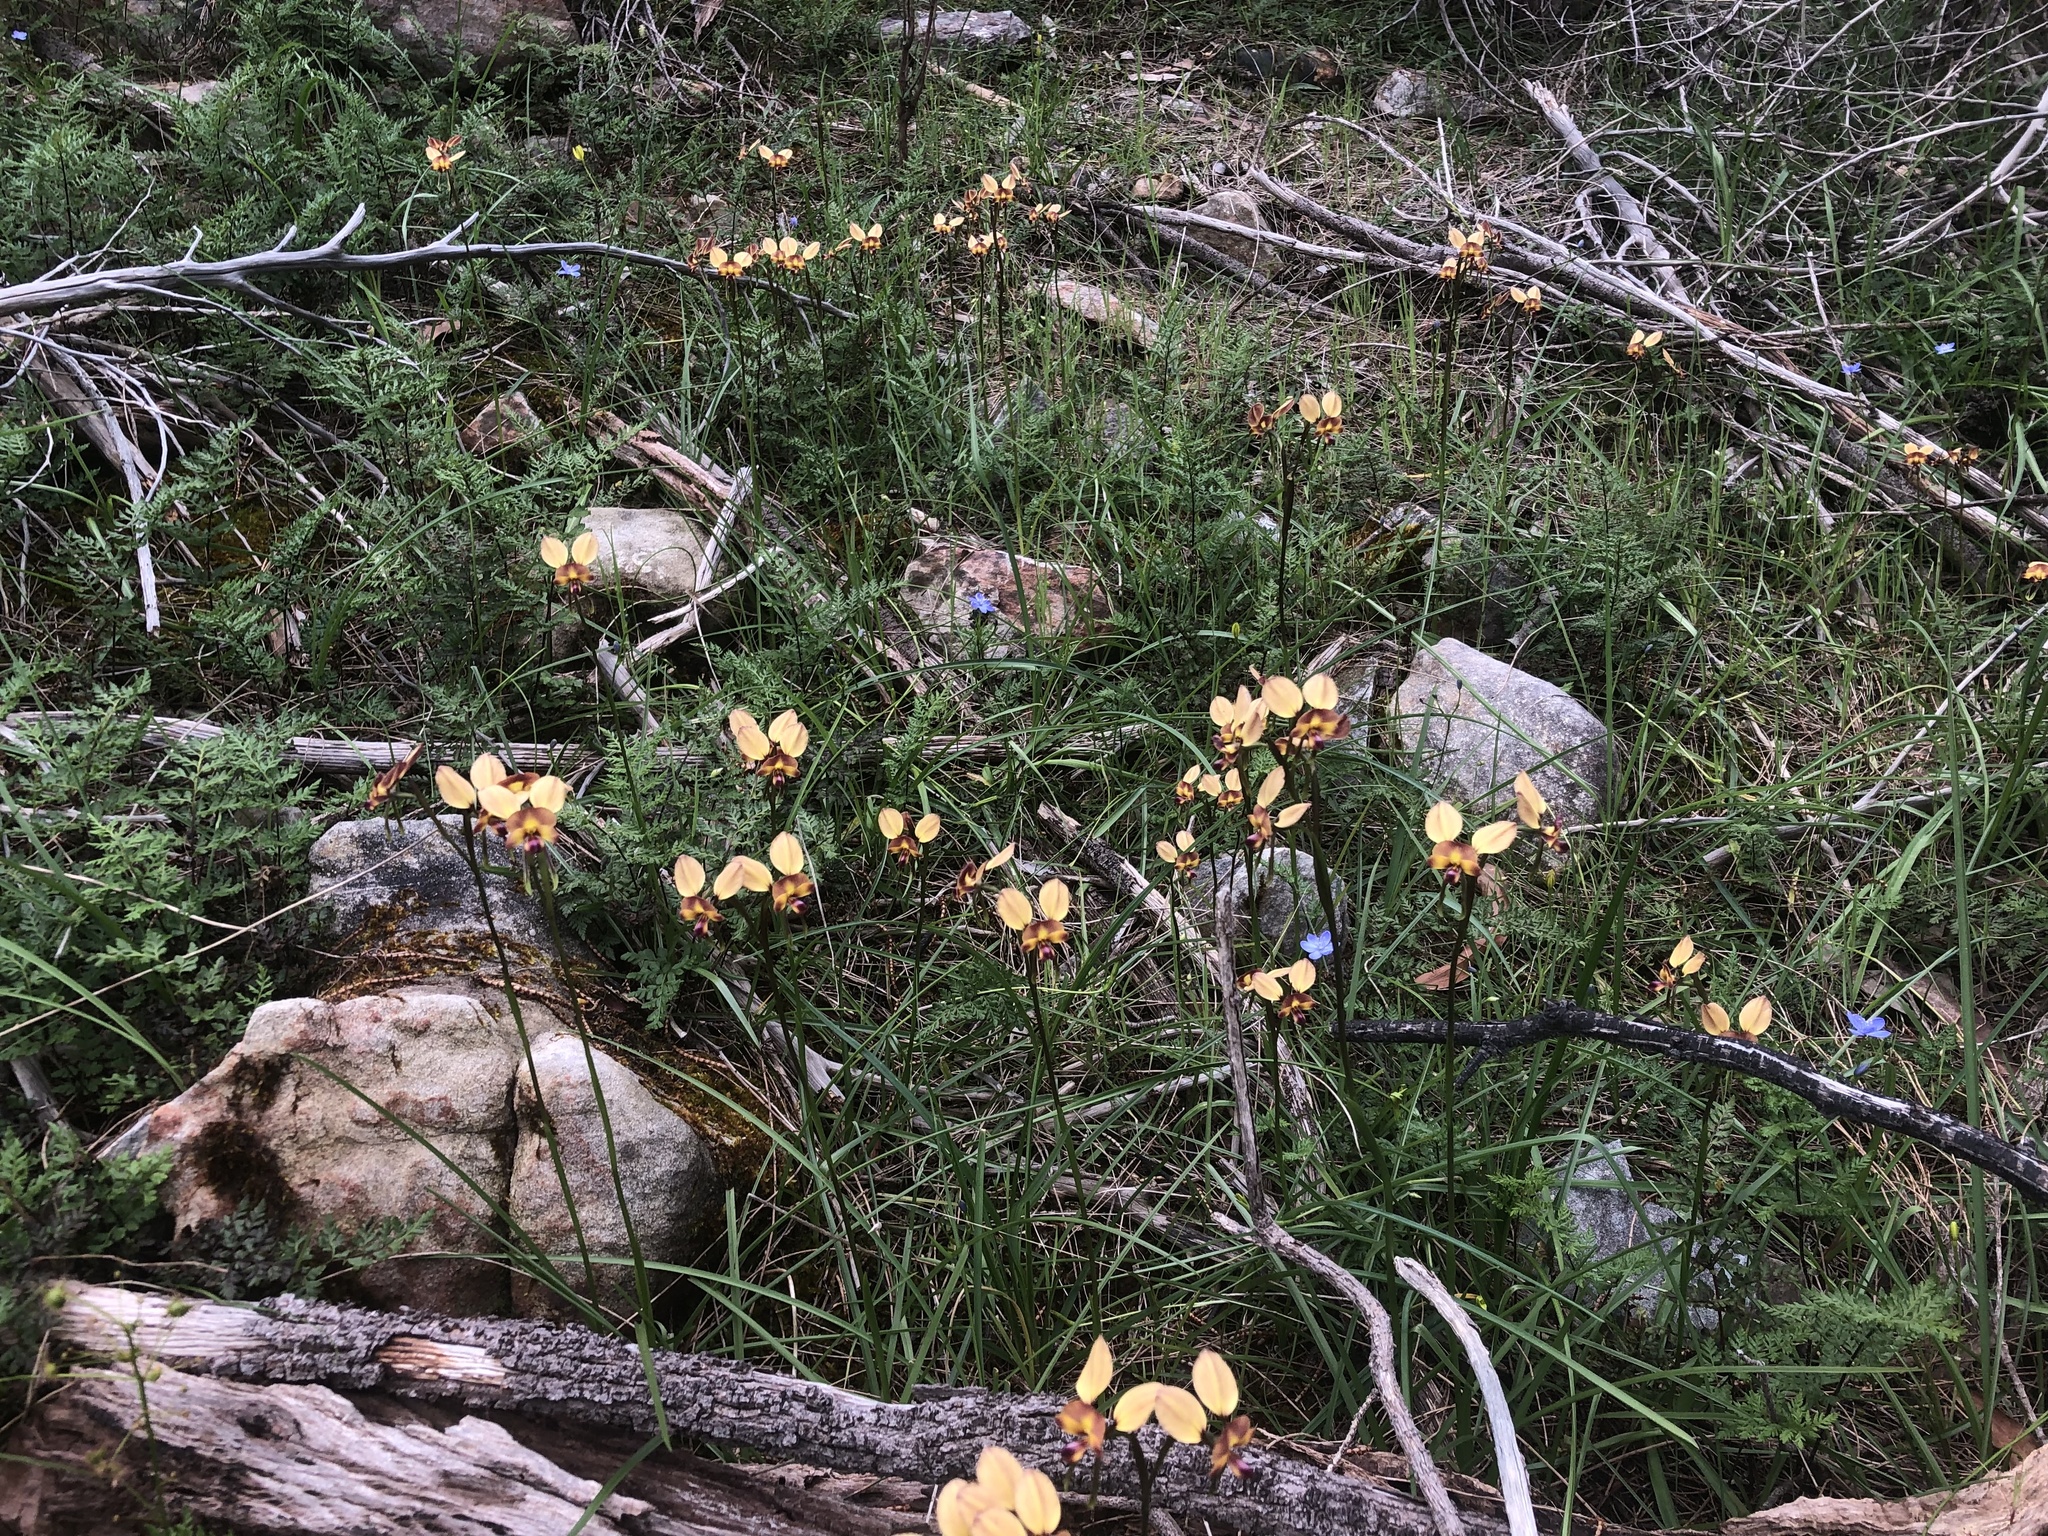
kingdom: Plantae
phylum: Tracheophyta
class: Liliopsida
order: Asparagales
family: Orchidaceae
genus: Diuris
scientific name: Diuris orientis
